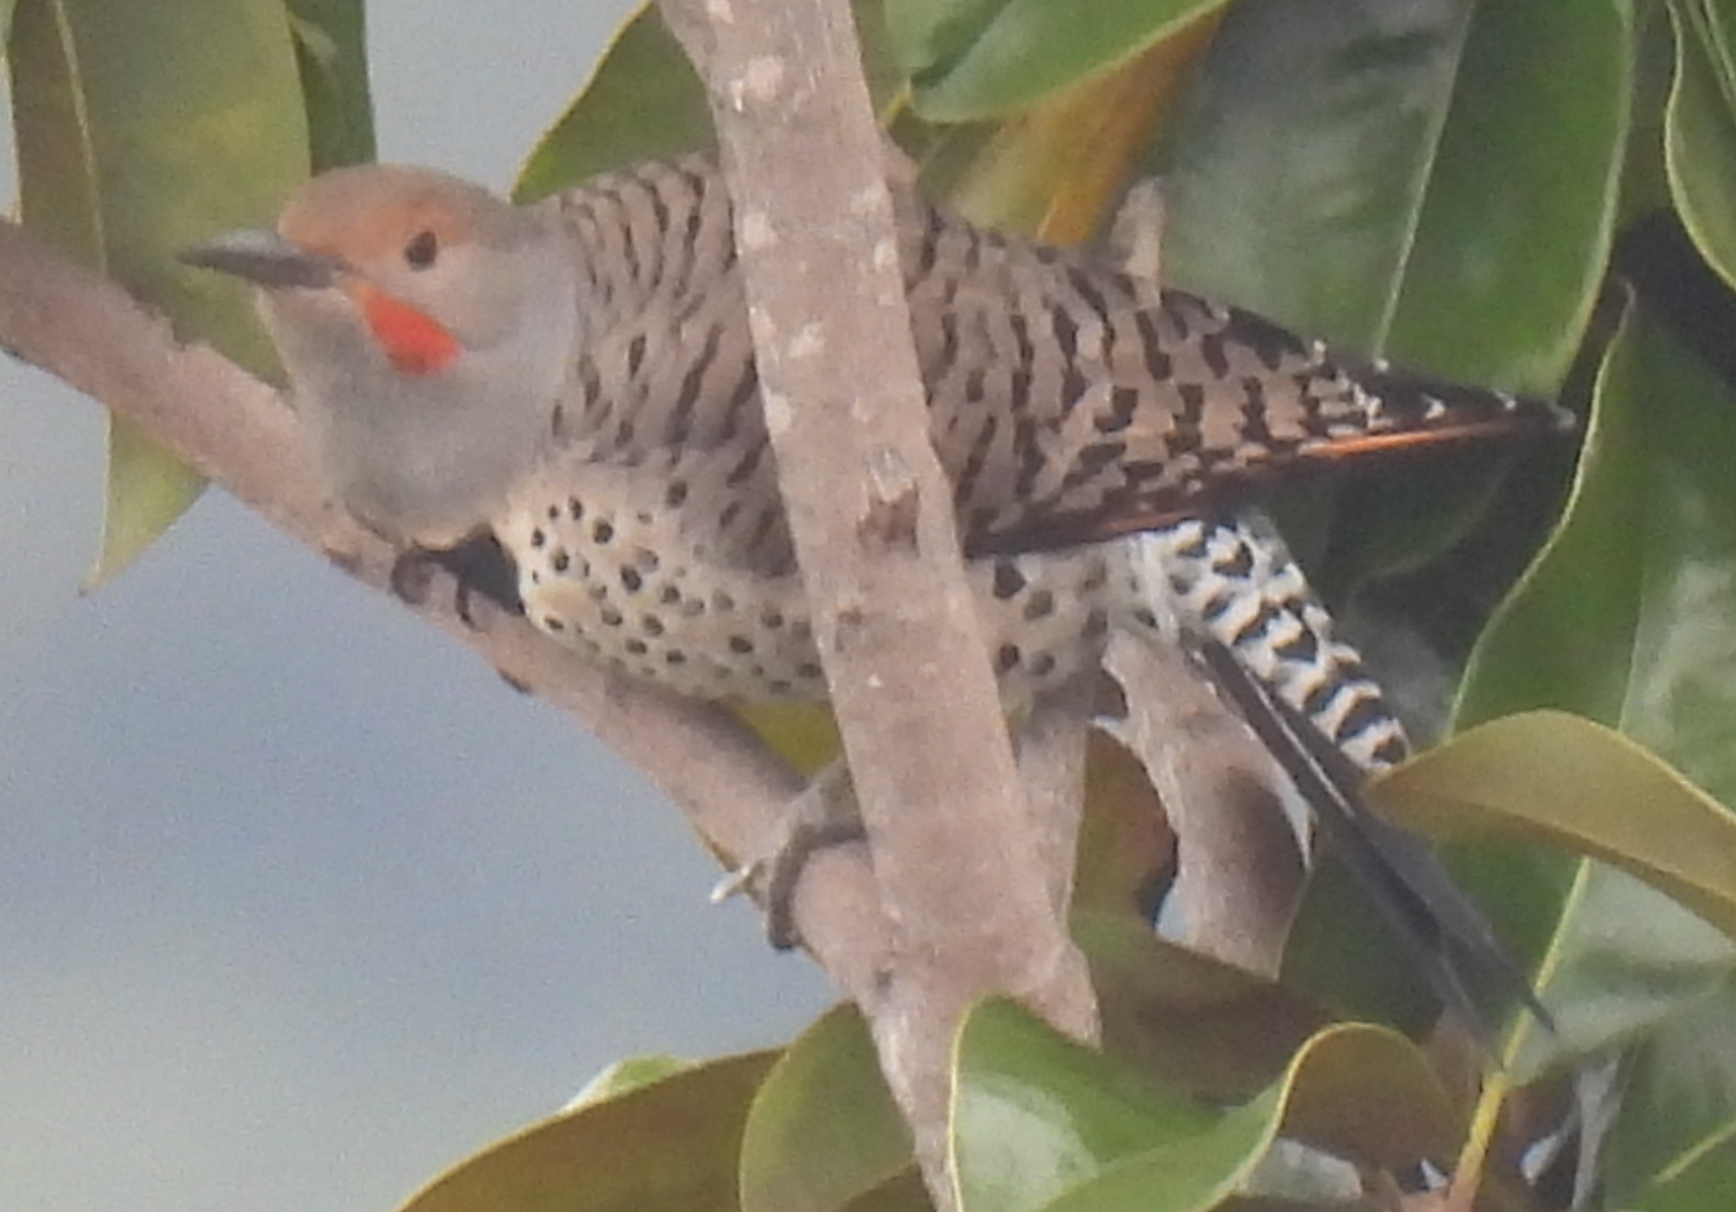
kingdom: Animalia
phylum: Chordata
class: Aves
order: Piciformes
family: Picidae
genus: Colaptes
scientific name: Colaptes auratus
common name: Northern flicker
